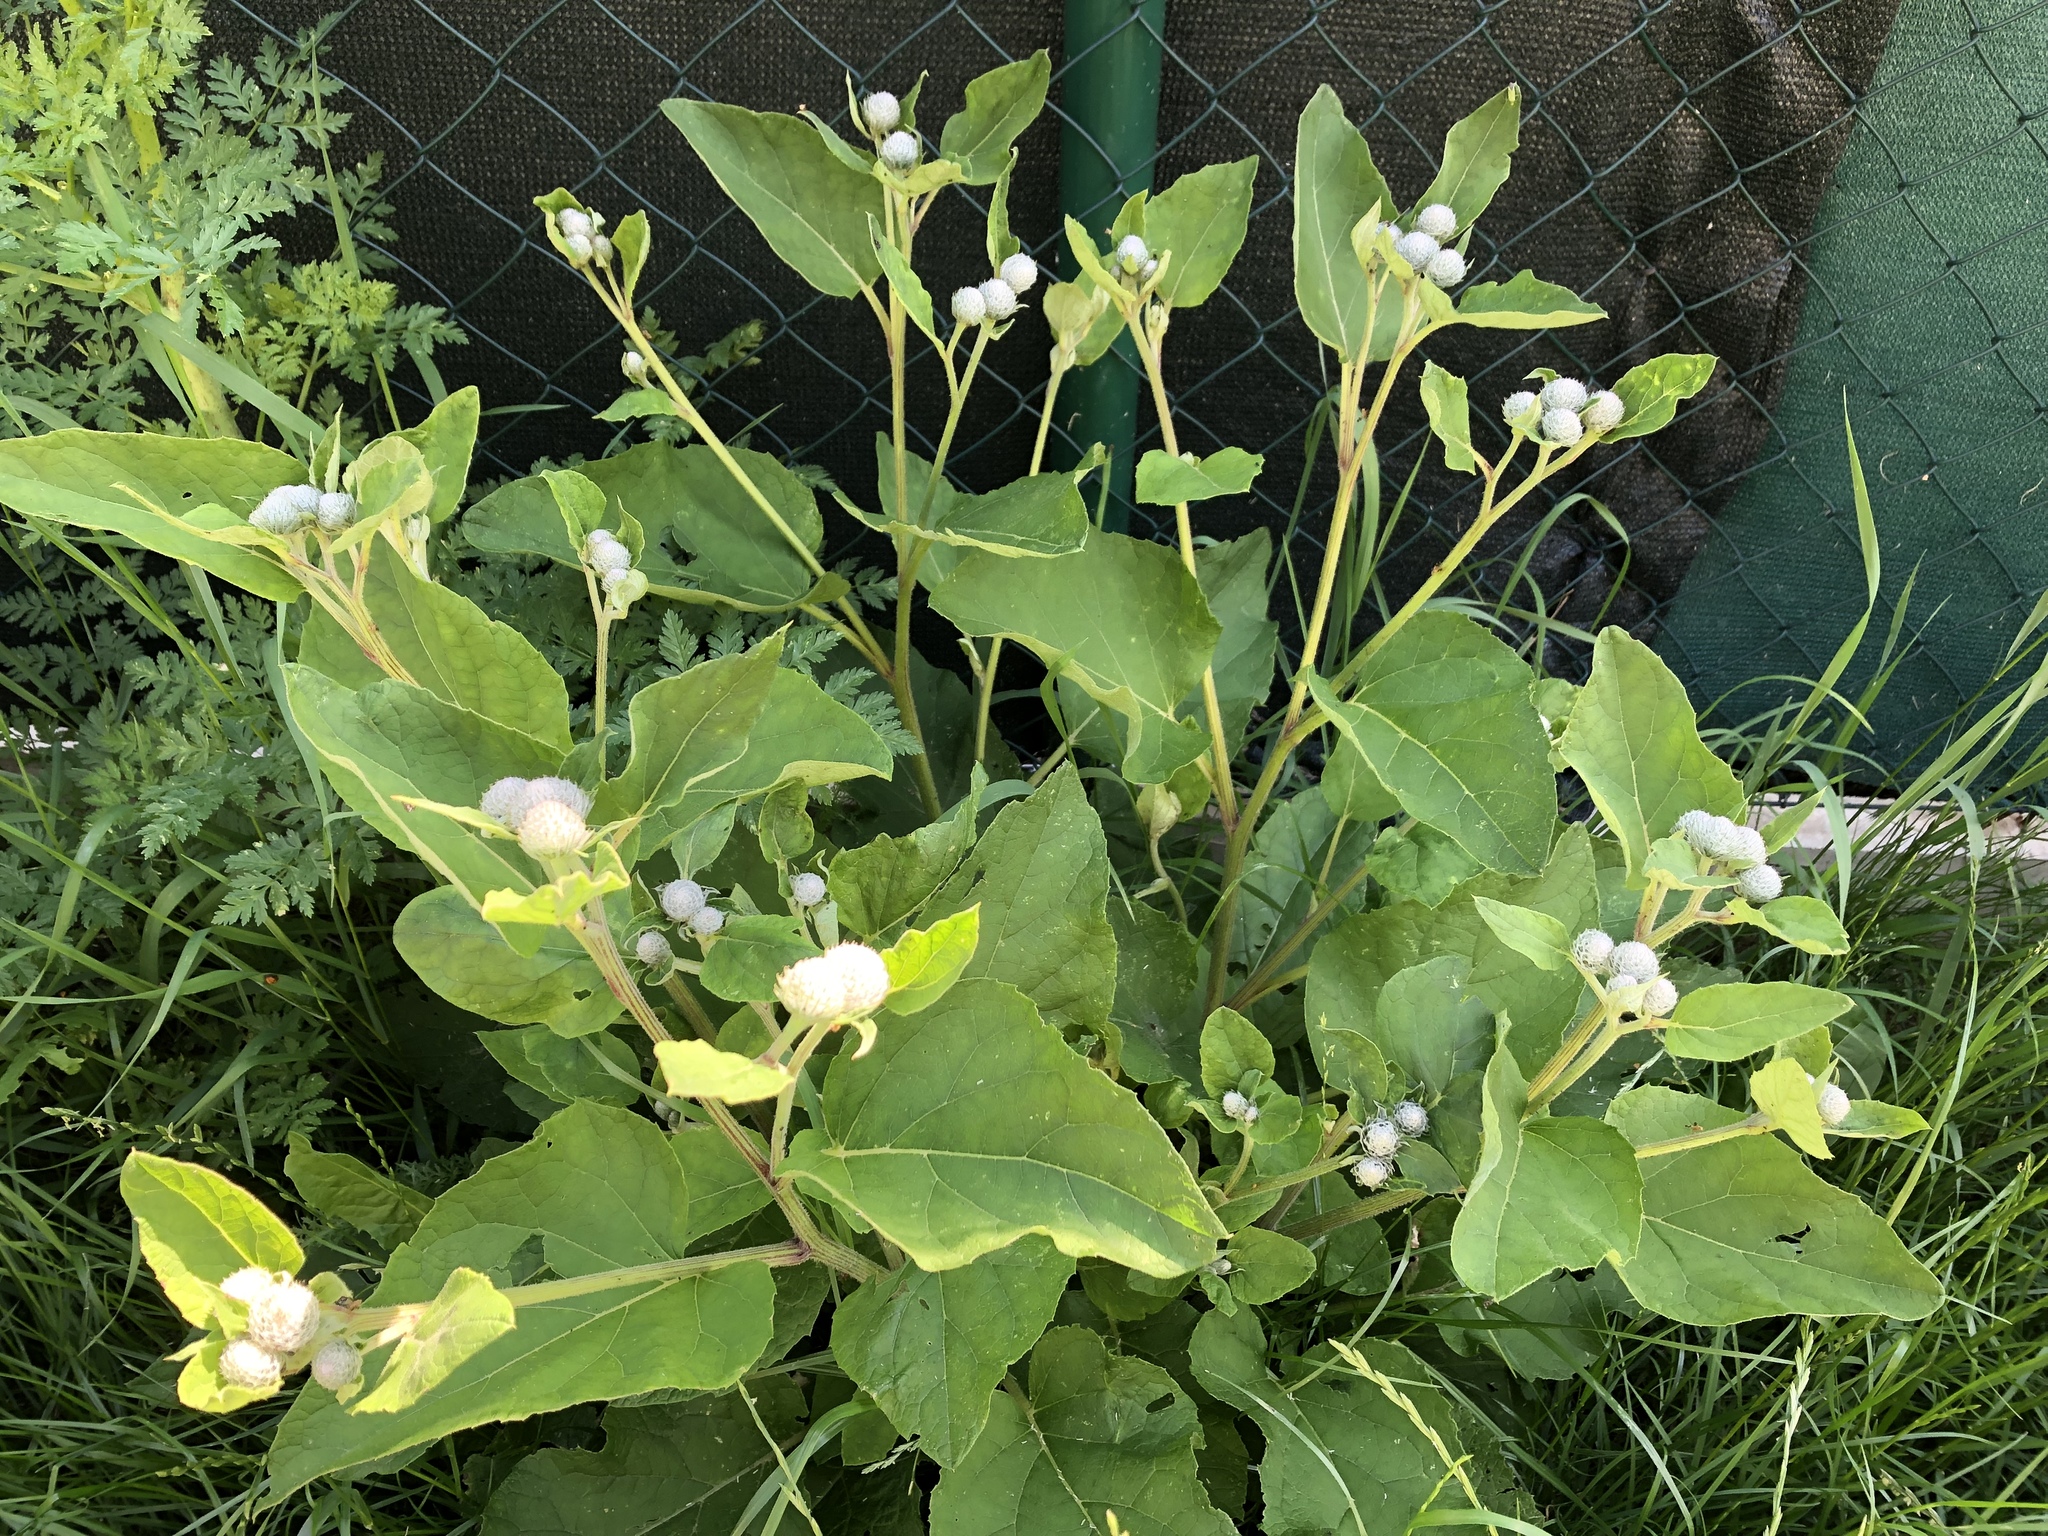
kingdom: Plantae
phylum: Tracheophyta
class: Magnoliopsida
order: Asterales
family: Asteraceae
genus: Arctium
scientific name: Arctium tomentosum
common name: Woolly burdock
